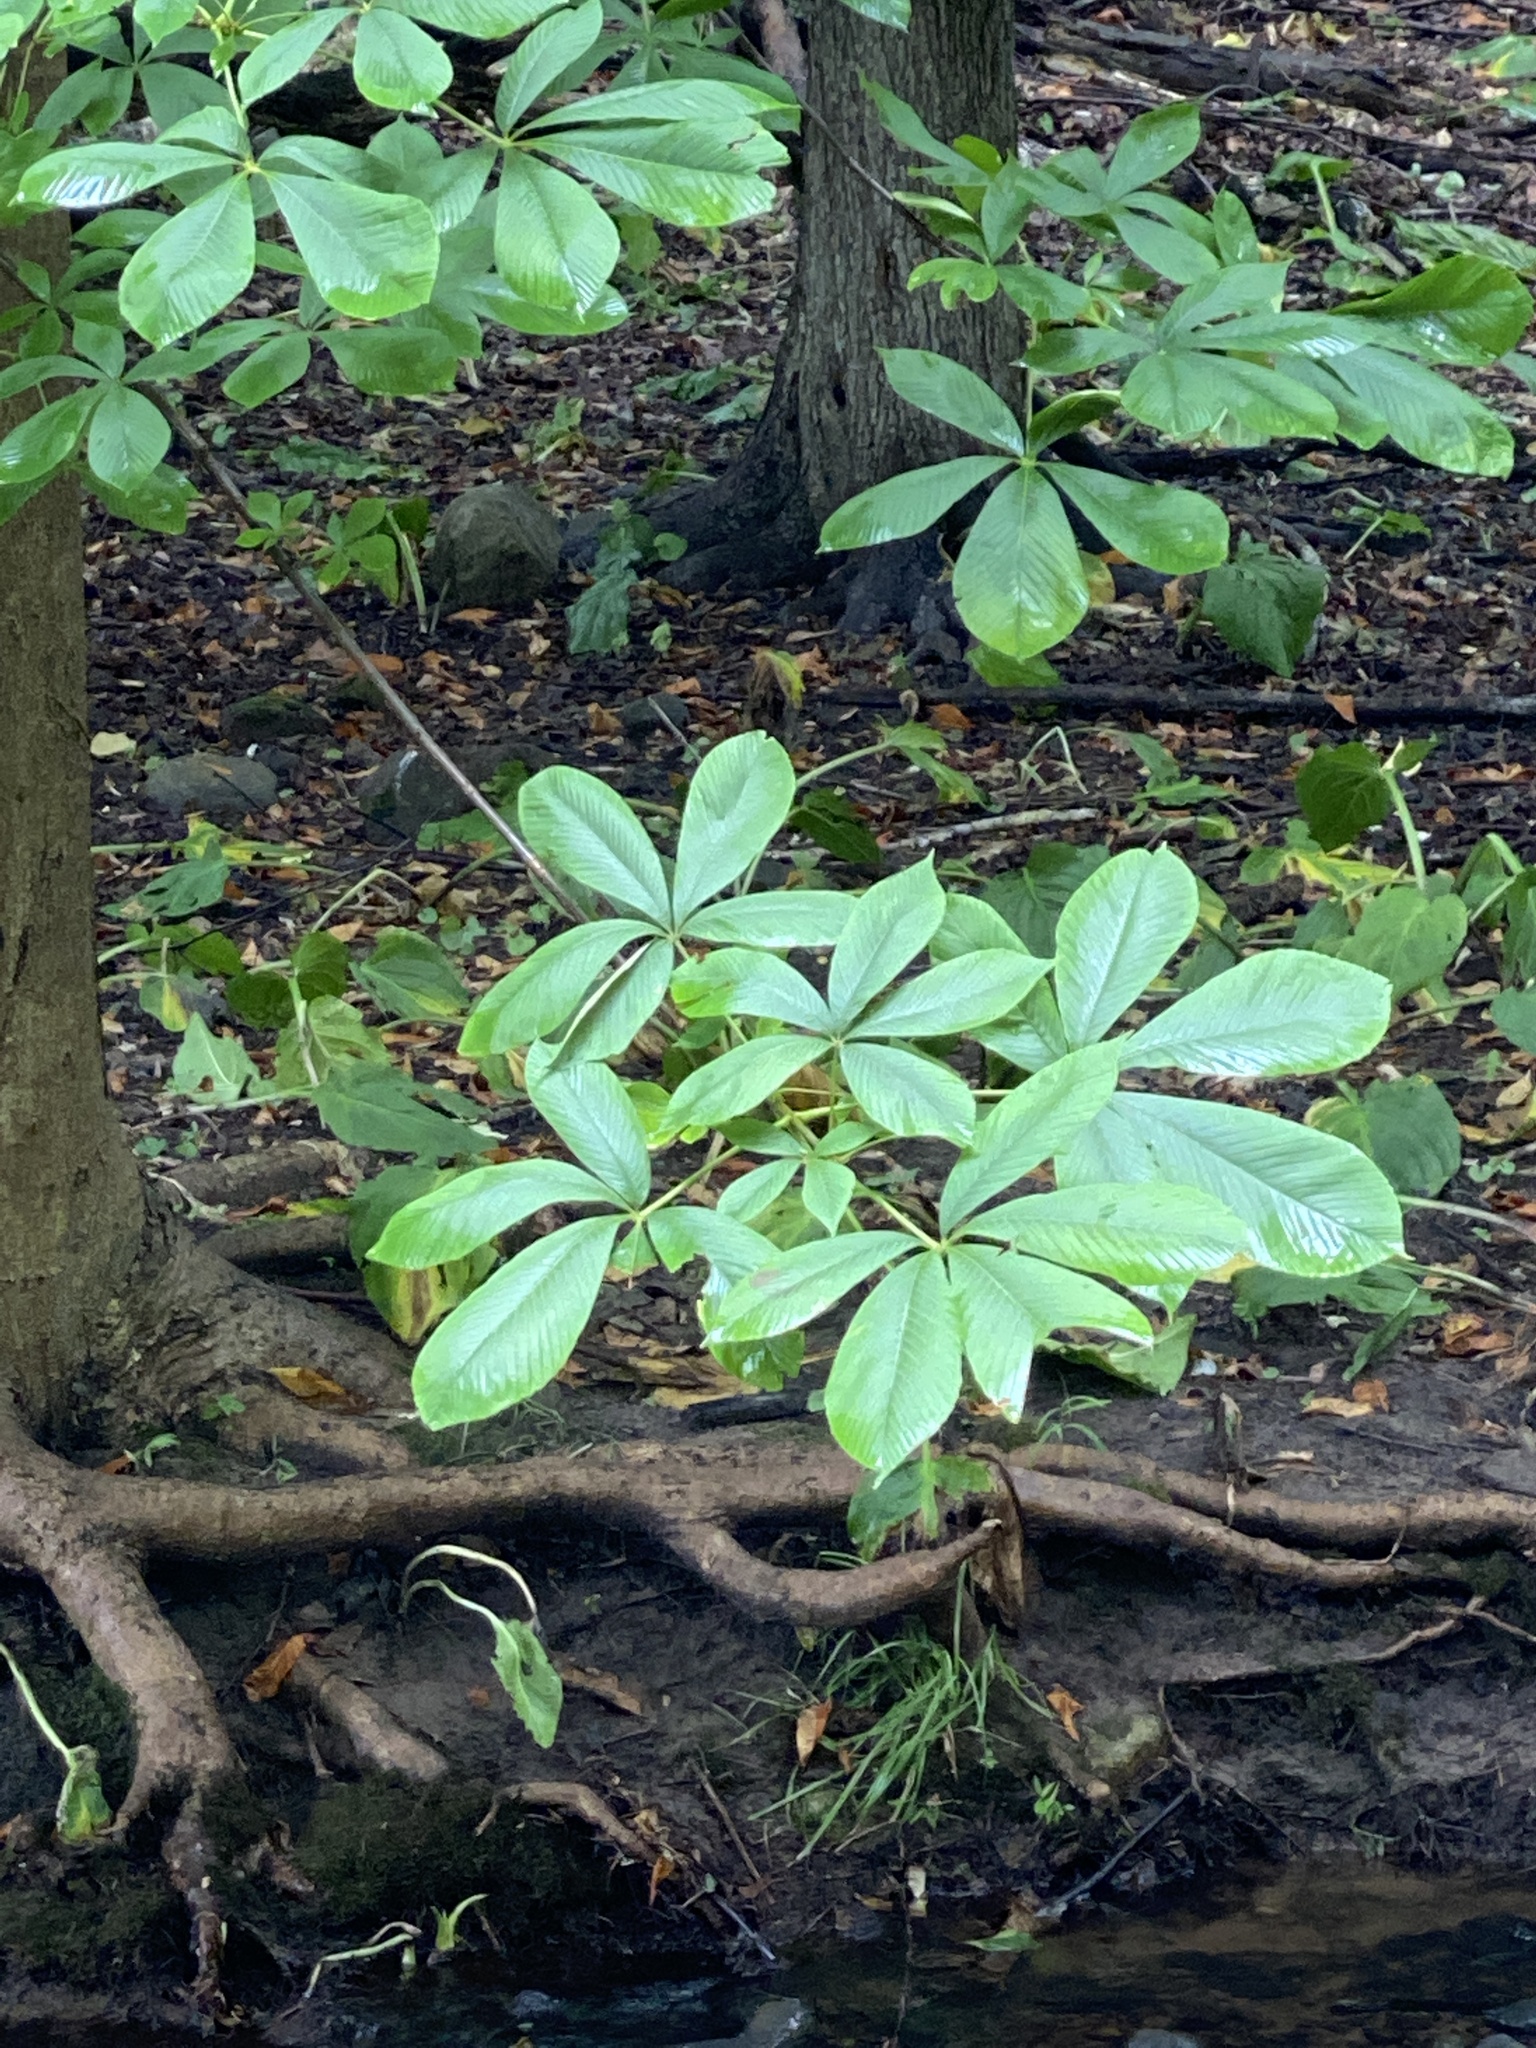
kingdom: Plantae
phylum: Tracheophyta
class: Magnoliopsida
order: Sapindales
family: Sapindaceae
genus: Aesculus
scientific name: Aesculus flava
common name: Yellow buckeye
